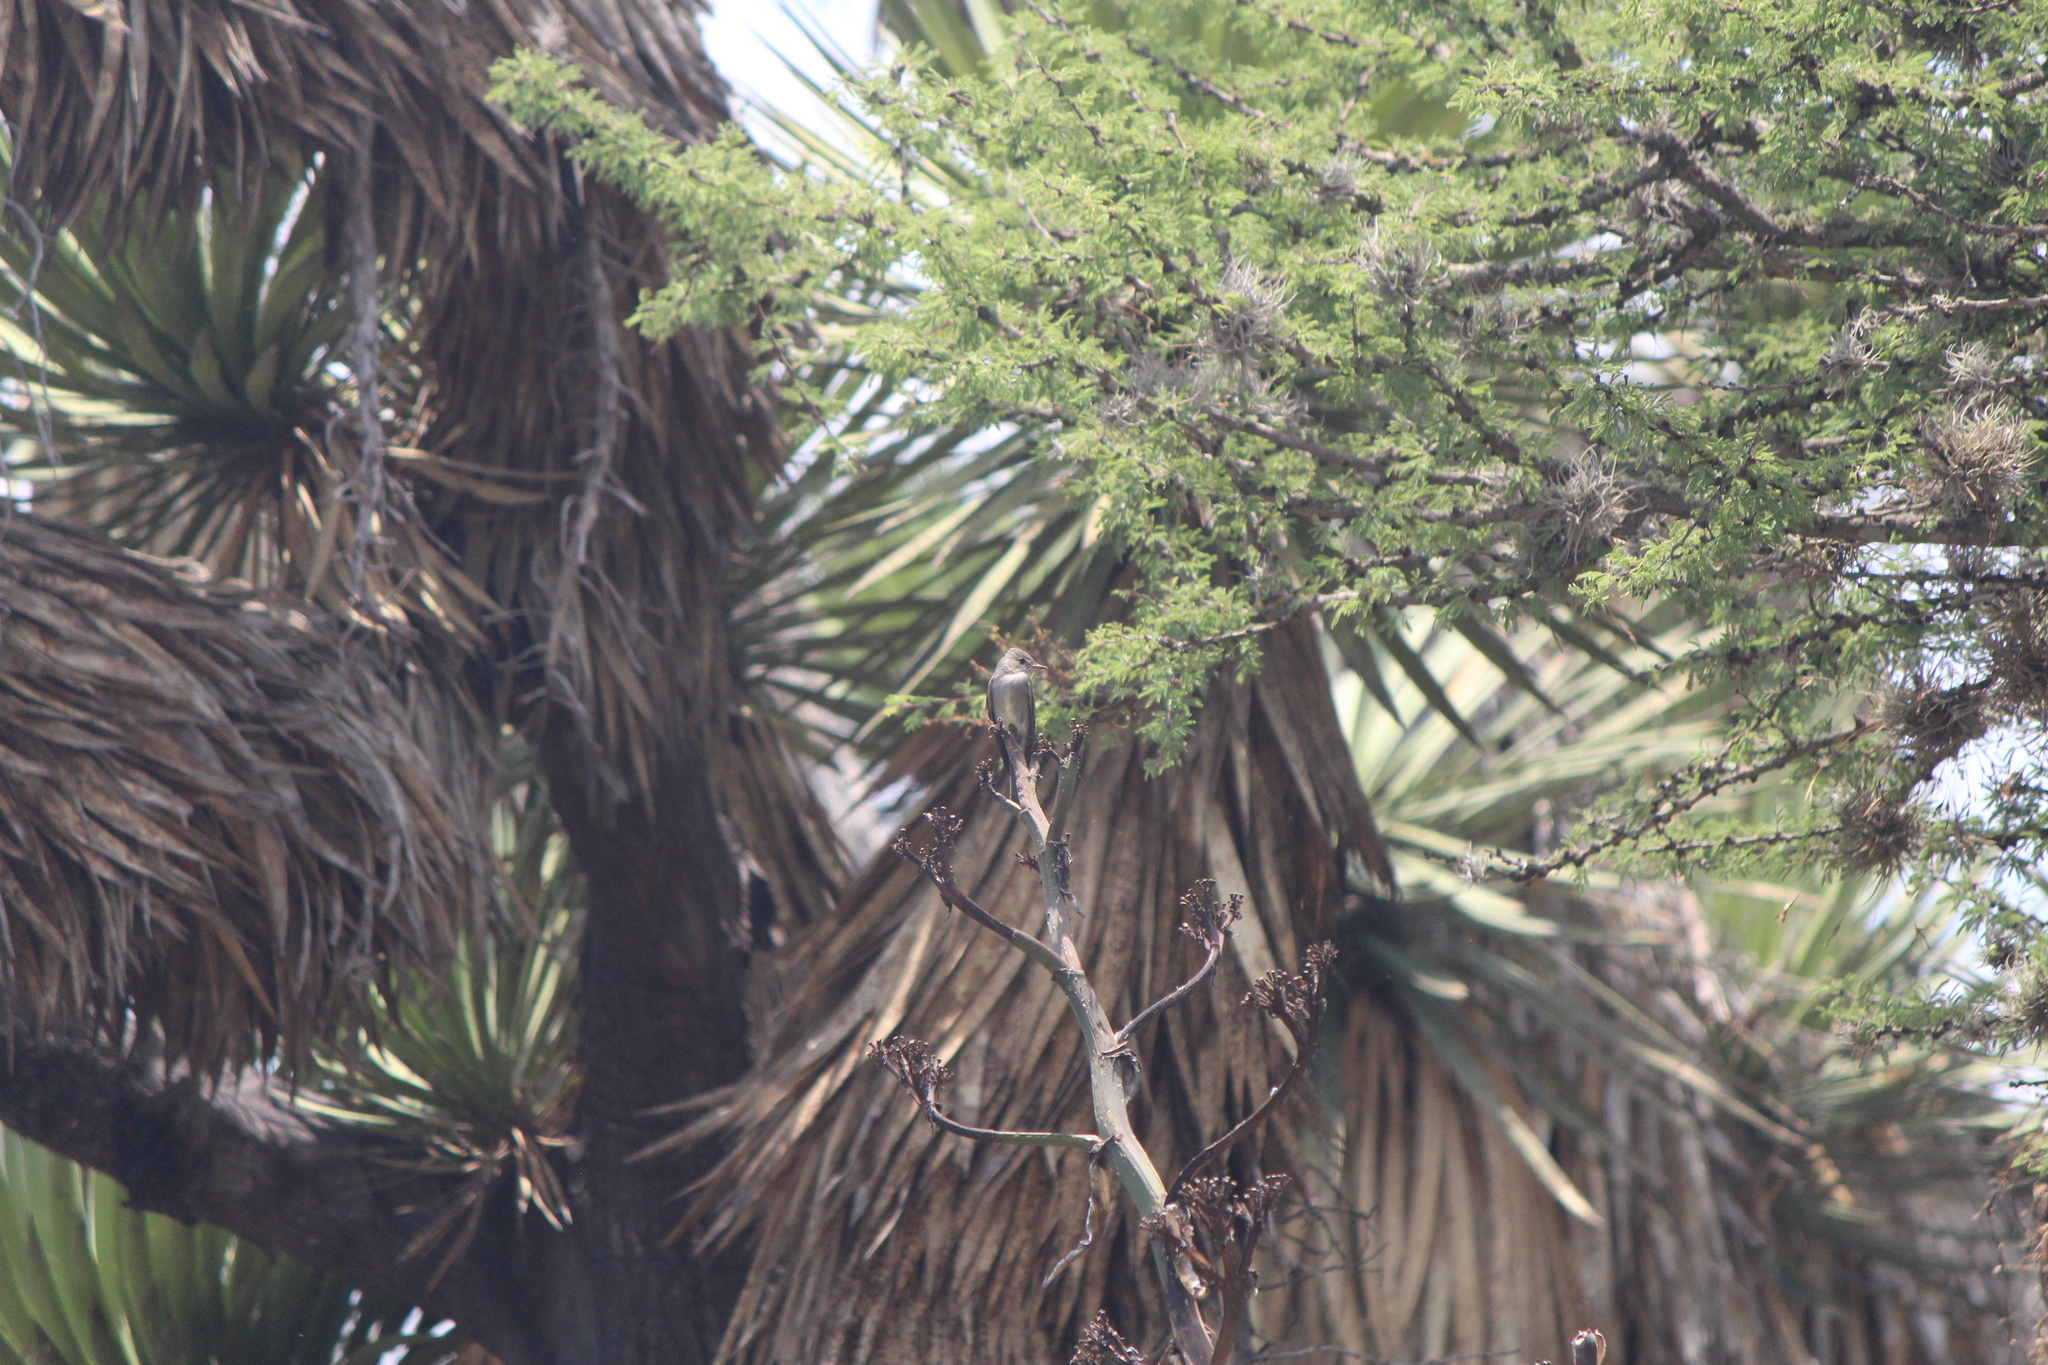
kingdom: Animalia
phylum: Chordata
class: Aves
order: Passeriformes
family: Tyrannidae
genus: Contopus
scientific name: Contopus cooperi
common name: Olive-sided flycatcher
